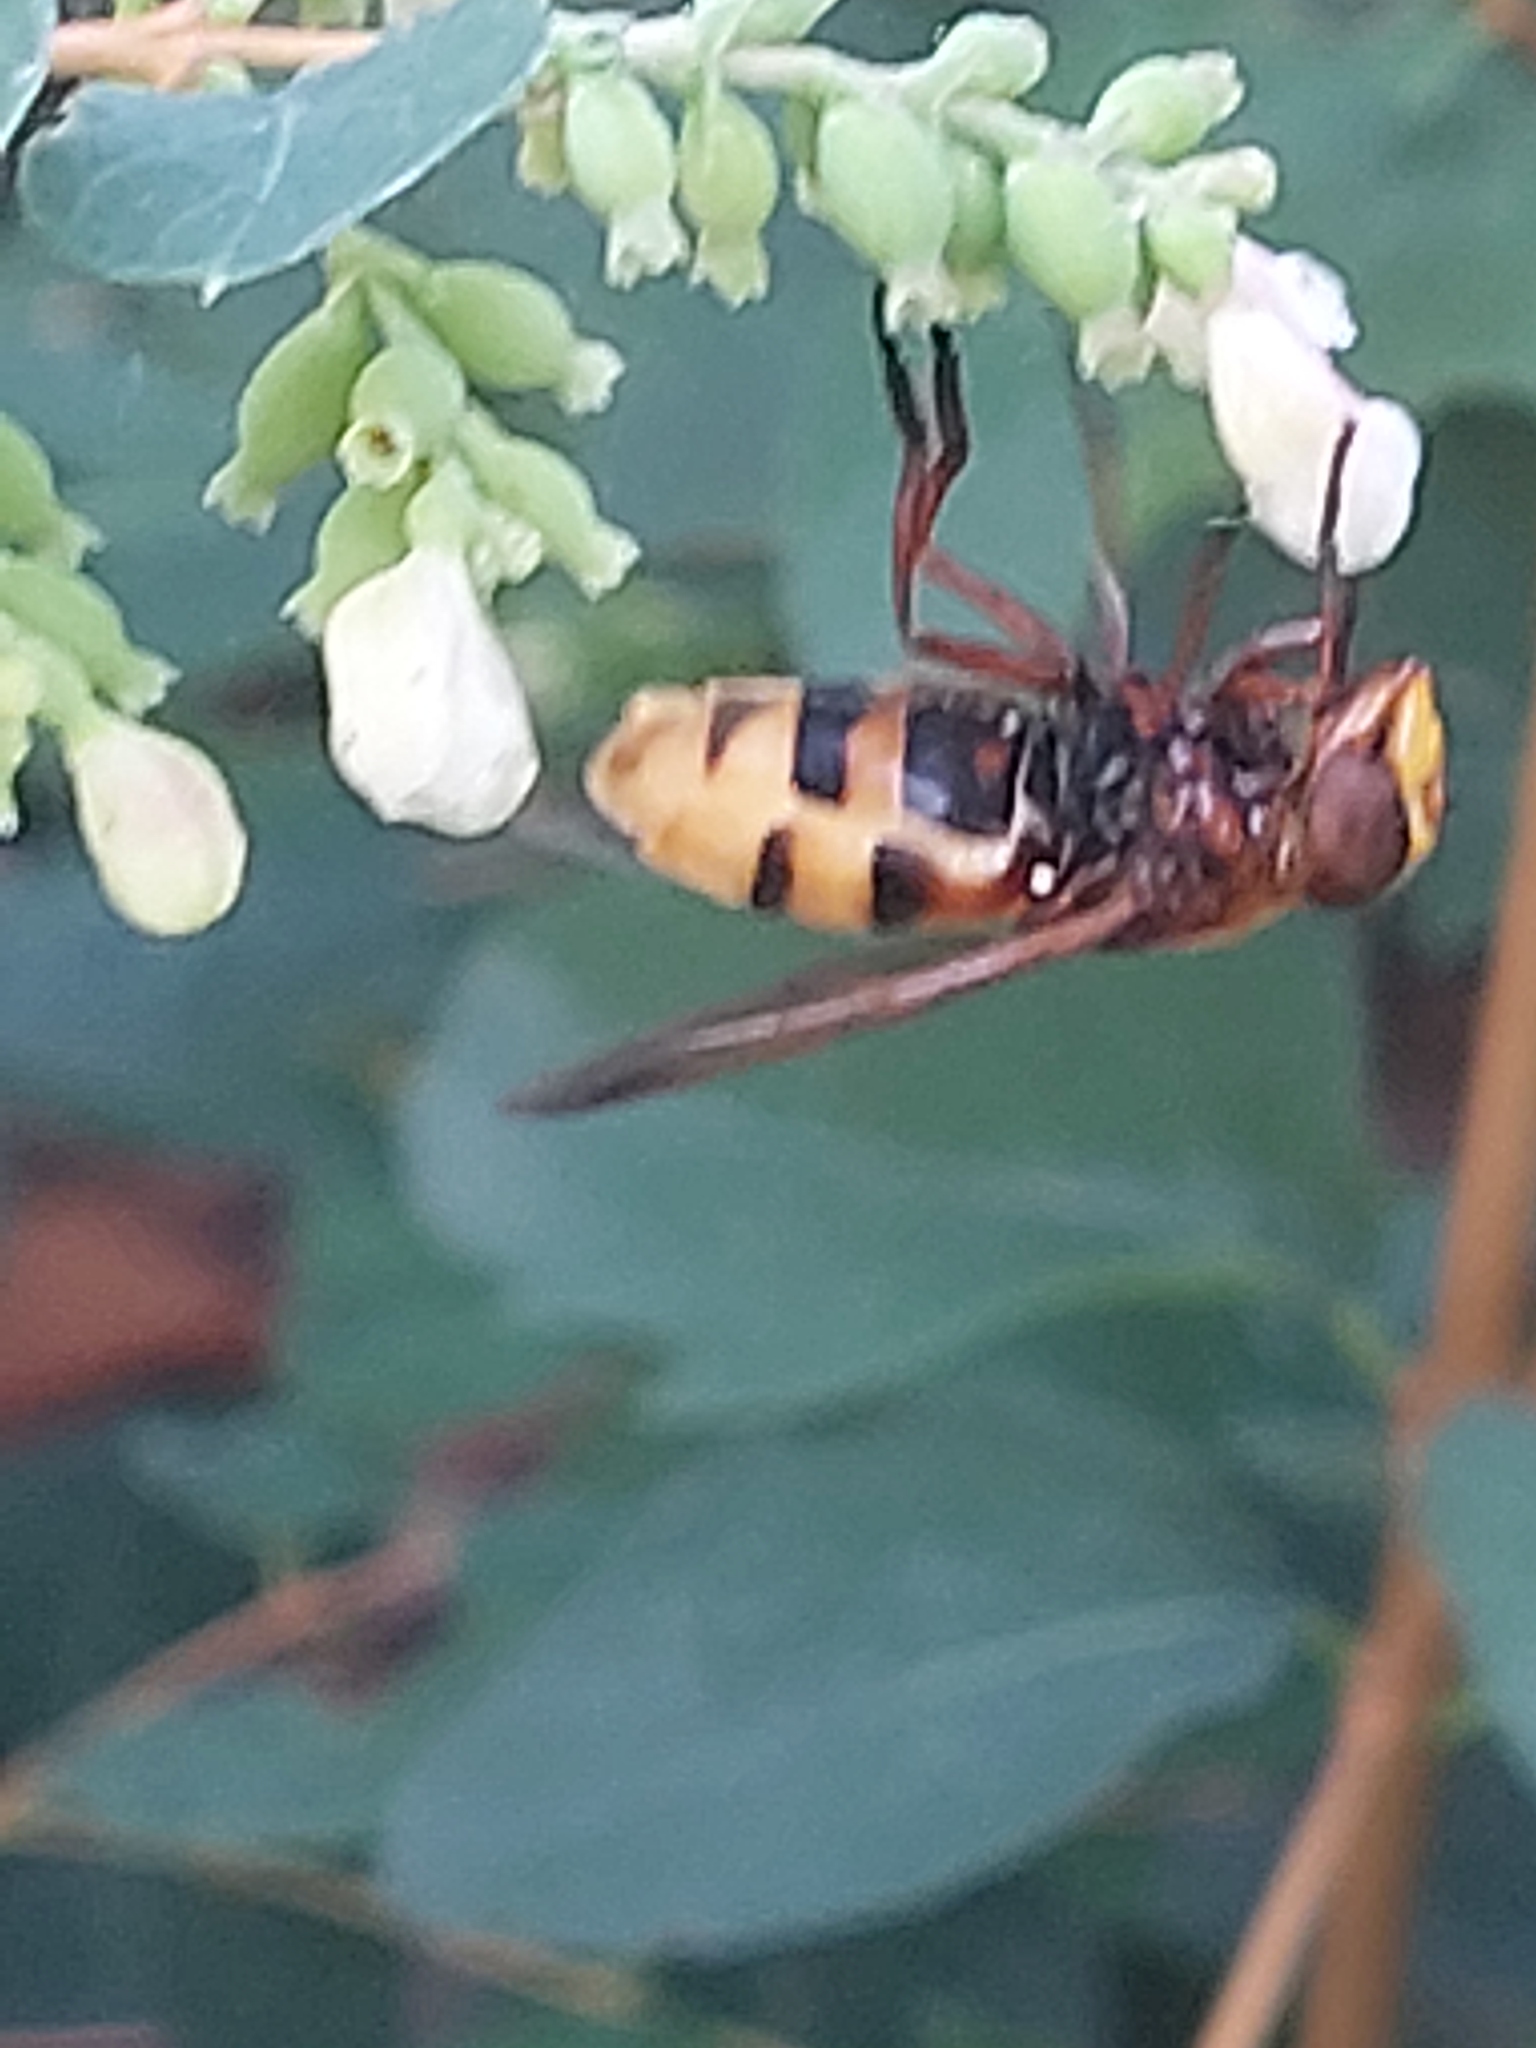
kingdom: Animalia
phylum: Arthropoda
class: Insecta
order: Diptera
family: Syrphidae
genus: Volucella
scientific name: Volucella zonaria
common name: Hornet hoverfly
